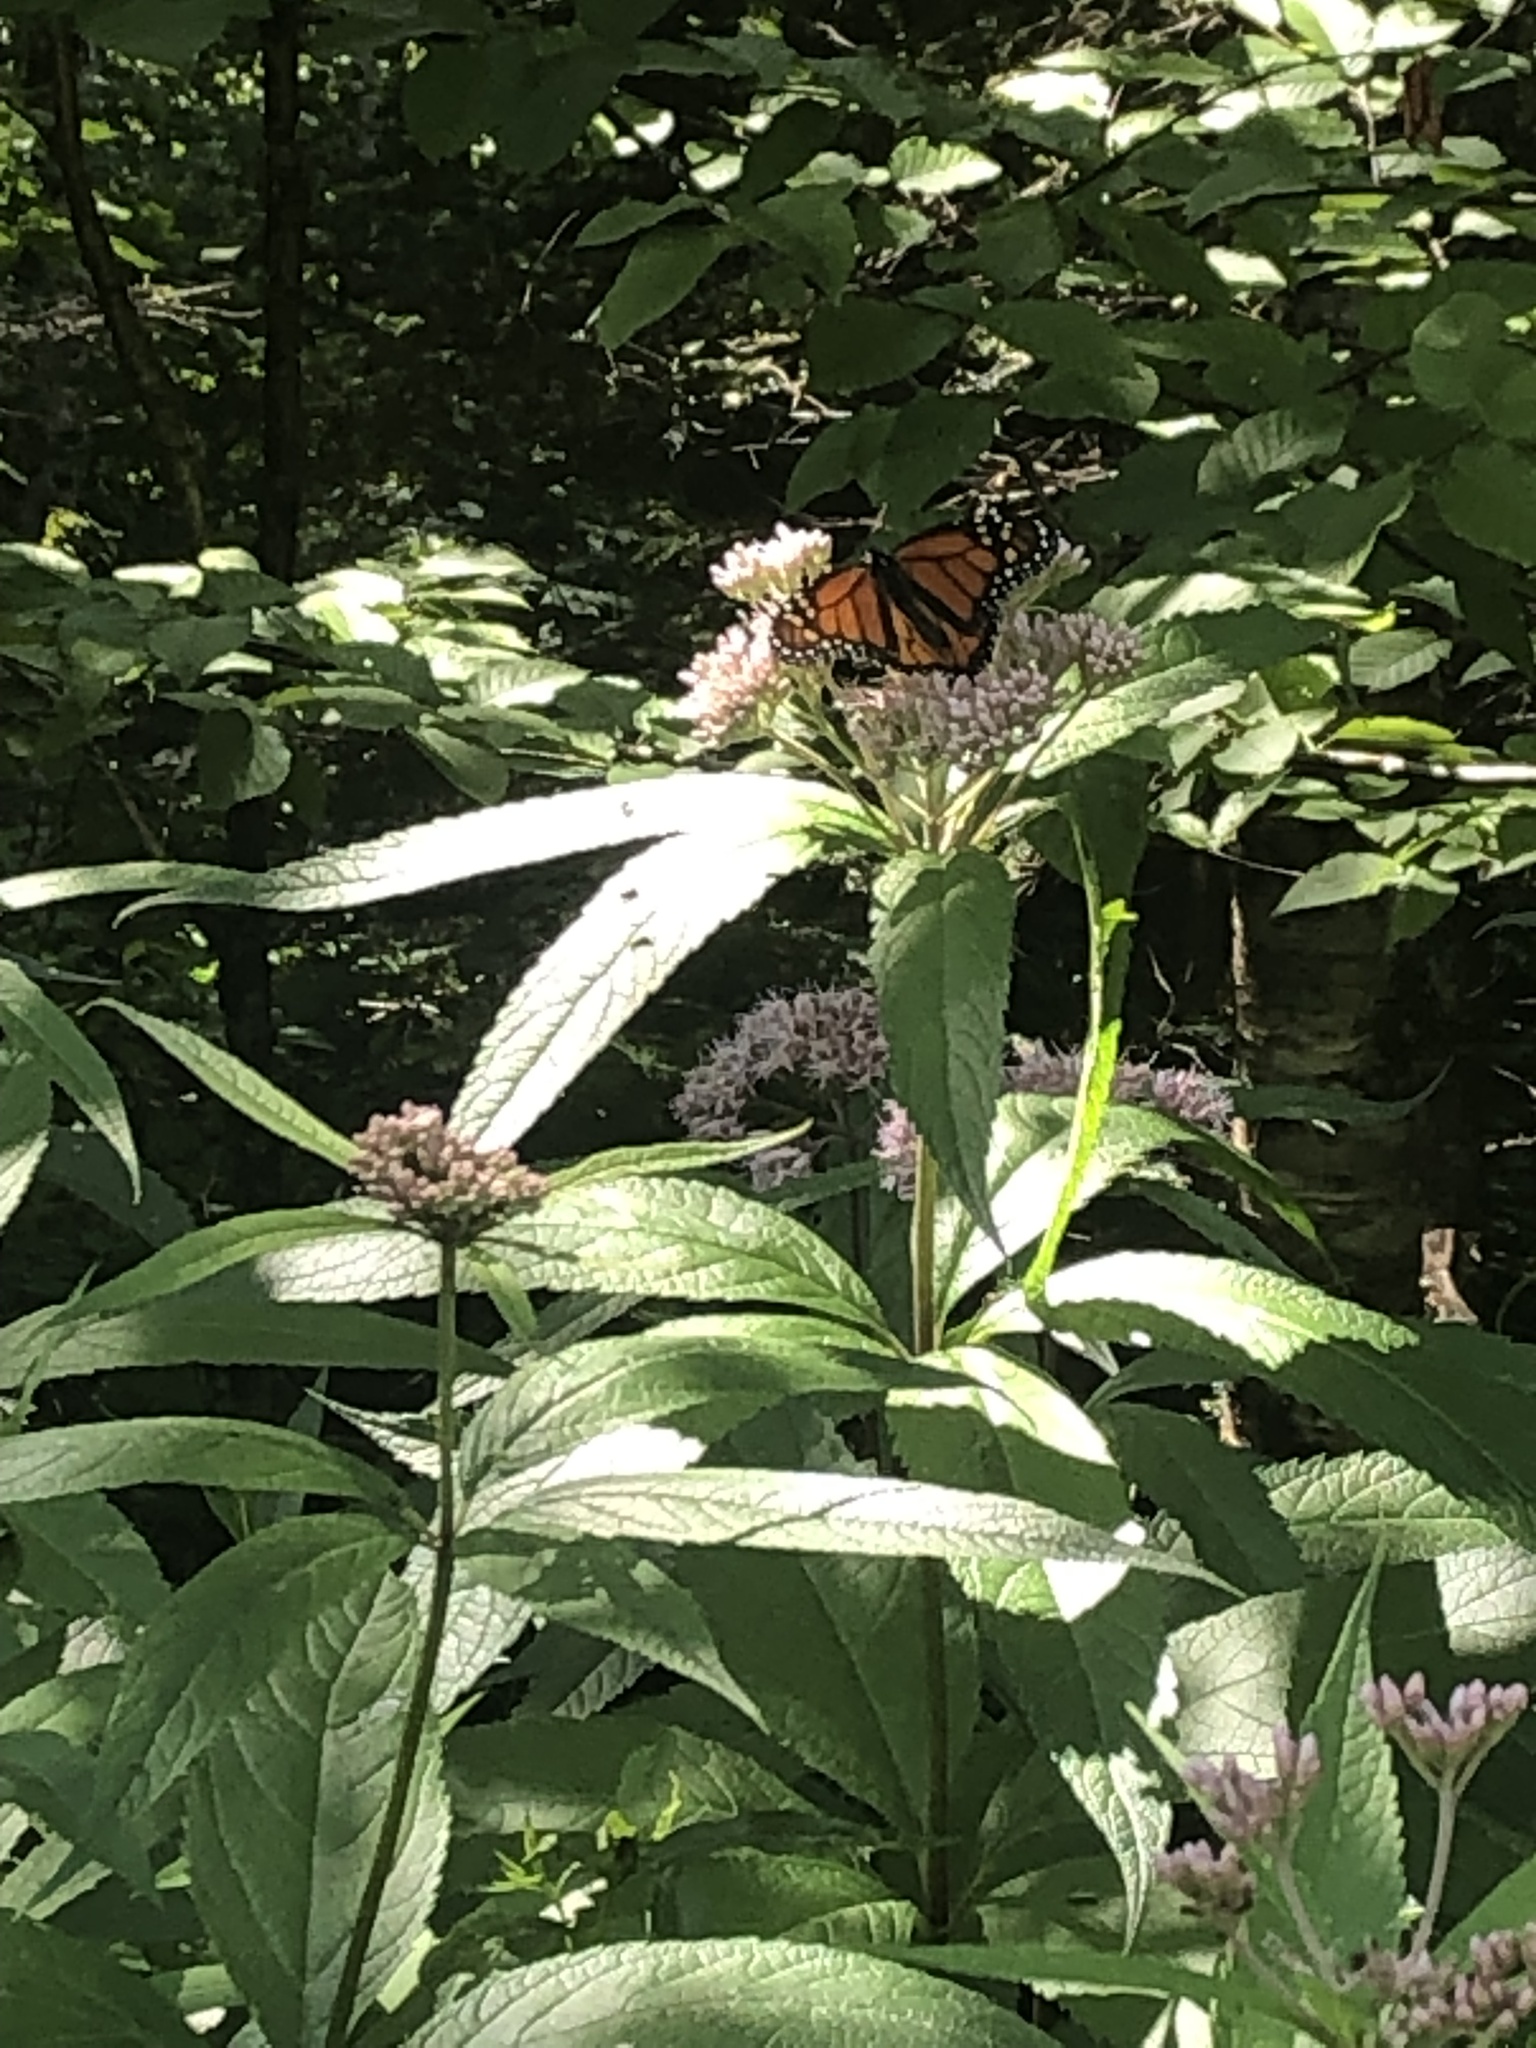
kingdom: Animalia
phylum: Arthropoda
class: Insecta
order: Lepidoptera
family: Nymphalidae
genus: Danaus
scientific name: Danaus plexippus
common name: Monarch
